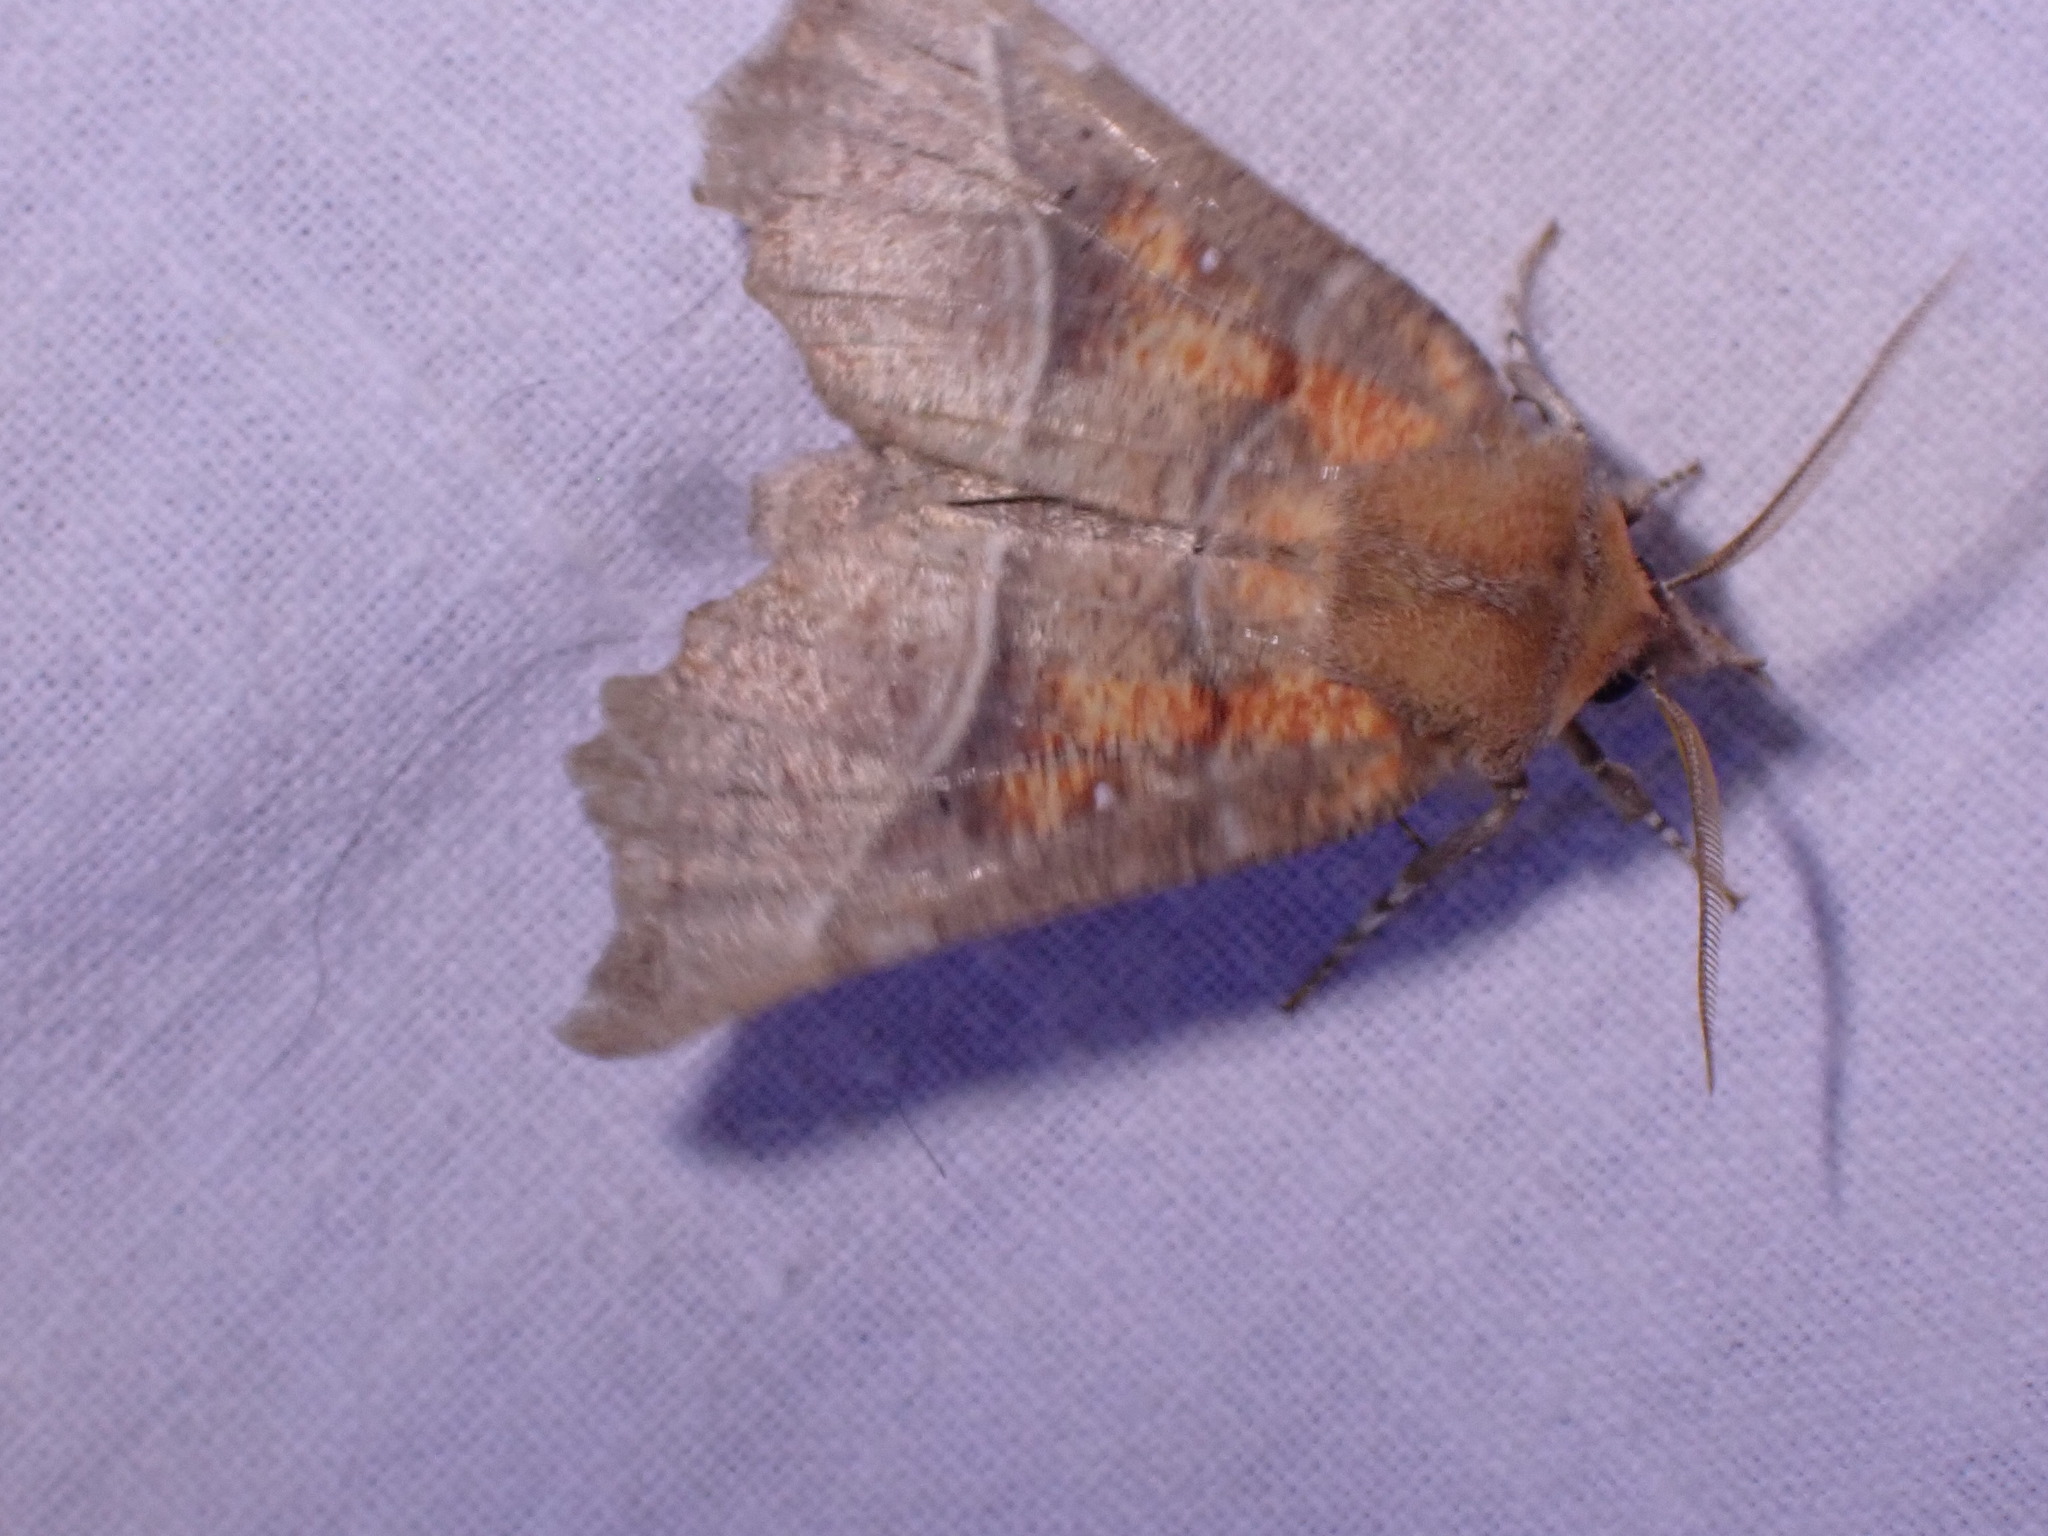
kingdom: Animalia
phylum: Arthropoda
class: Insecta
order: Lepidoptera
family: Erebidae
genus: Scoliopteryx
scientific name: Scoliopteryx libatrix
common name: Herald
